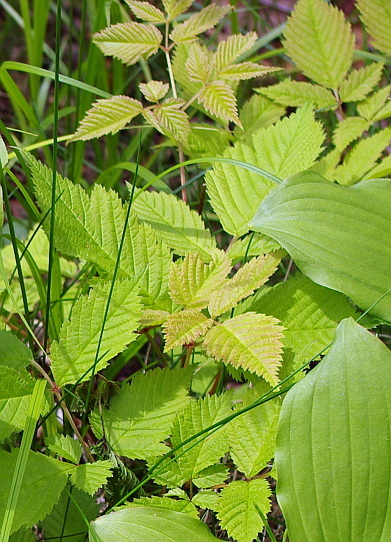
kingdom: Plantae
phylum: Tracheophyta
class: Magnoliopsida
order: Rosales
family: Rosaceae
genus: Aruncus
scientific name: Aruncus dioicus
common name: Buck's-beard
